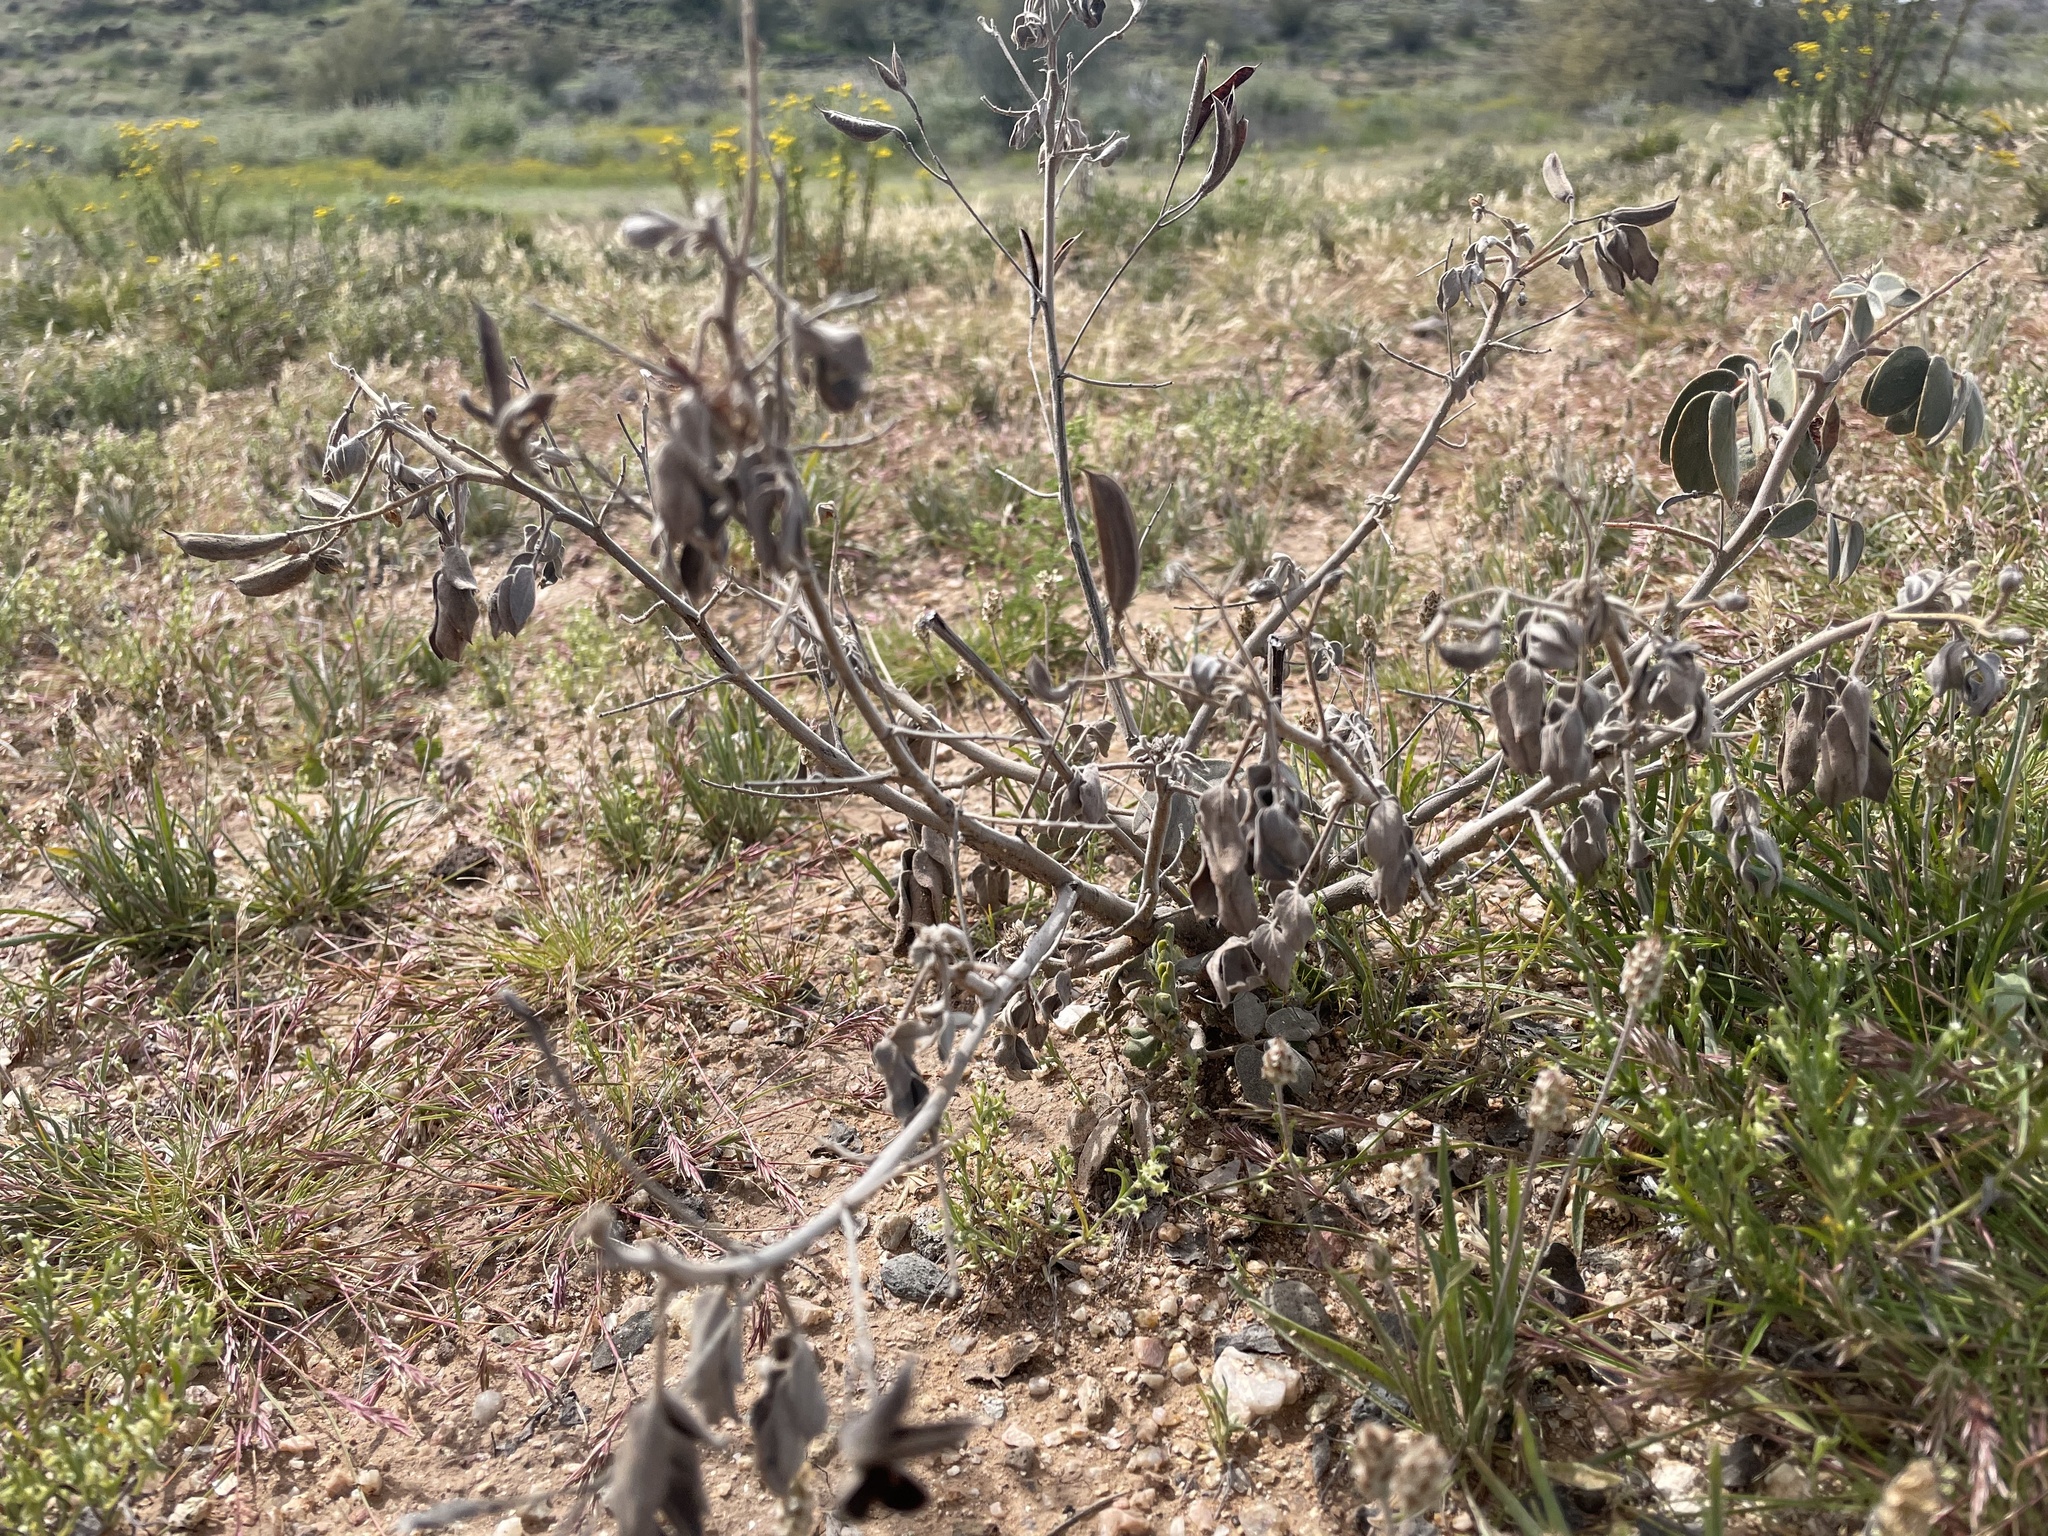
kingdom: Plantae
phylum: Tracheophyta
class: Magnoliopsida
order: Fabales
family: Fabaceae
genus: Senna
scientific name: Senna covesii
